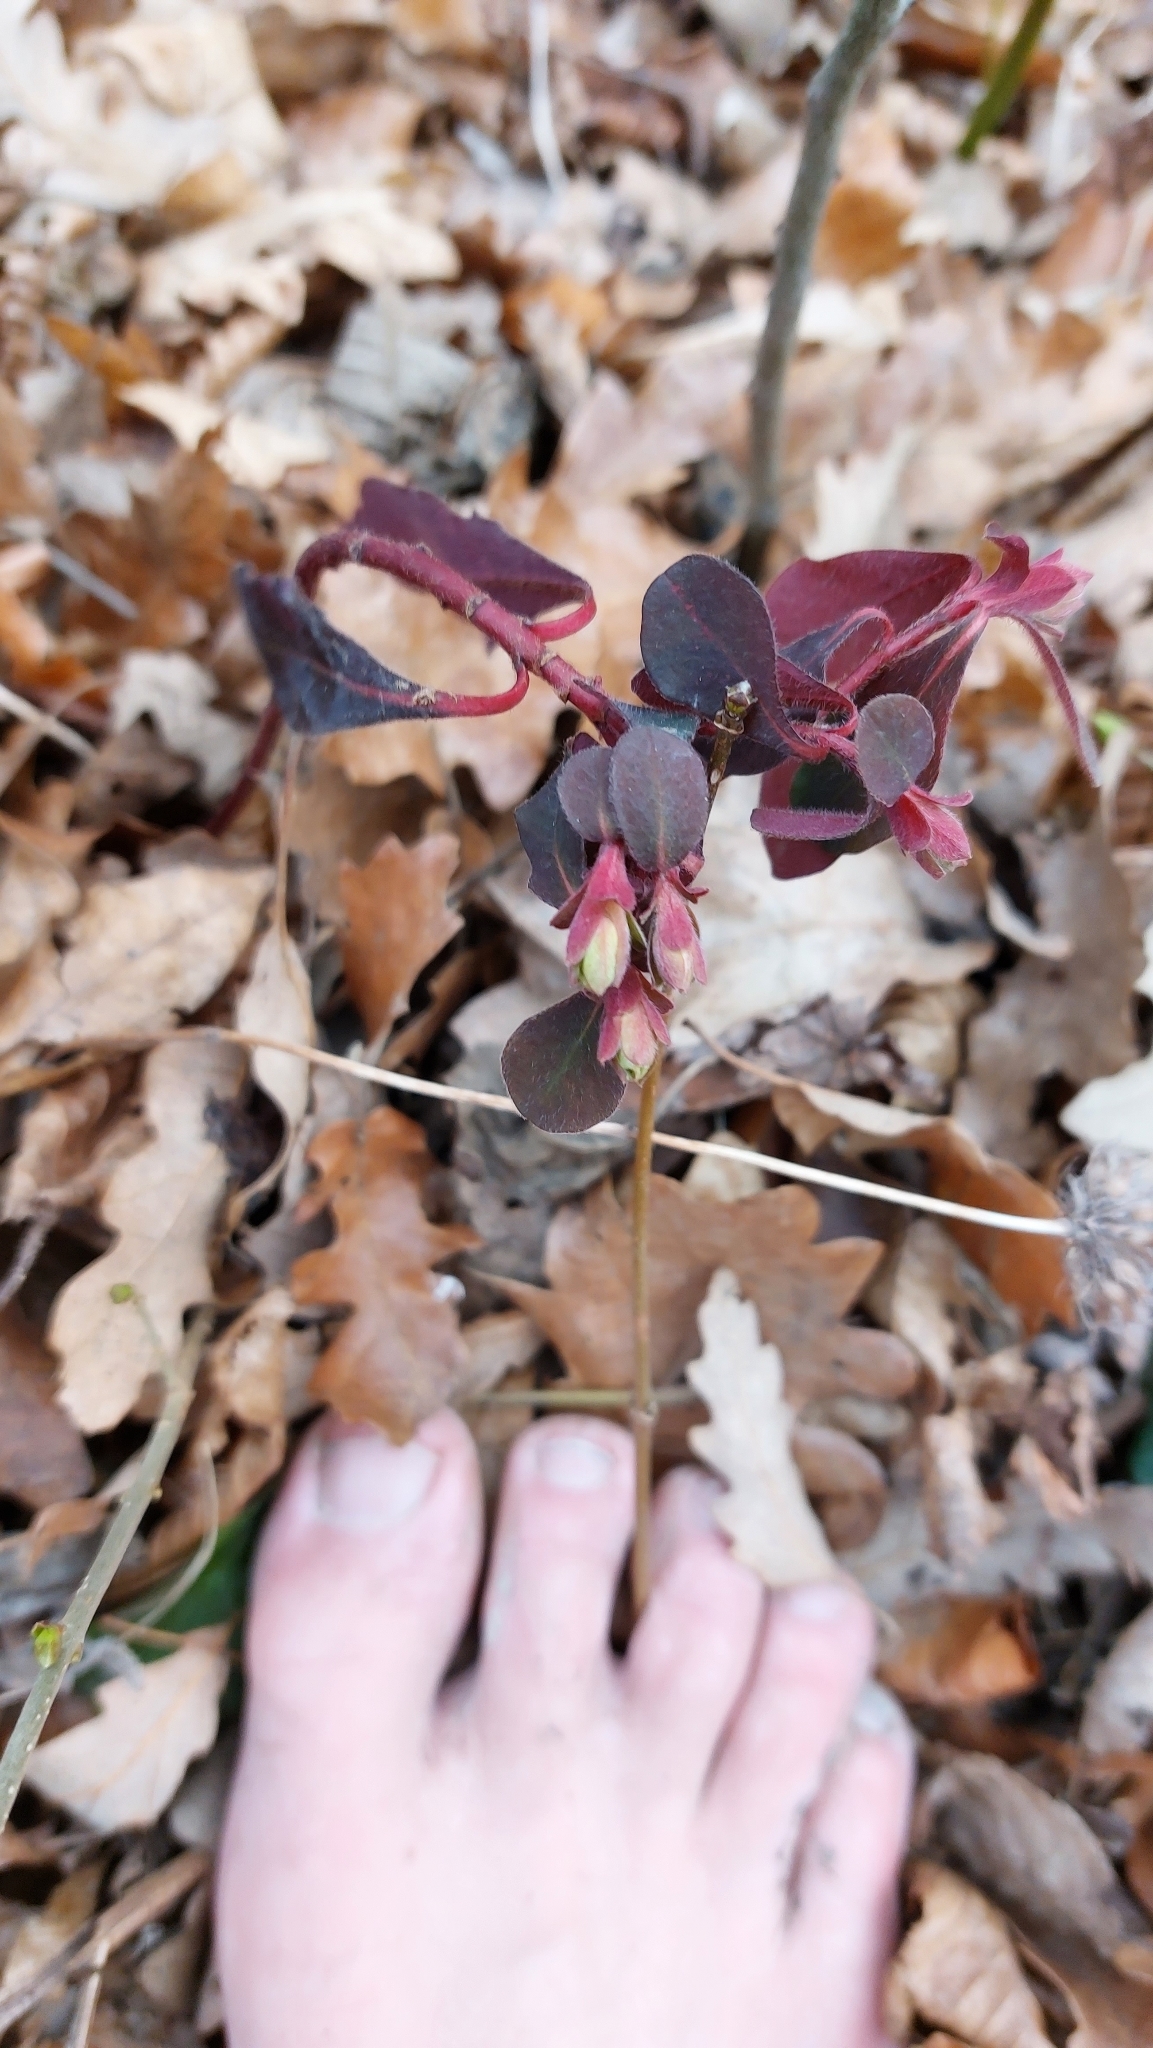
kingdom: Plantae
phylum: Tracheophyta
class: Magnoliopsida
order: Malpighiales
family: Euphorbiaceae
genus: Euphorbia
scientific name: Euphorbia amygdaloides
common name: Wood spurge
